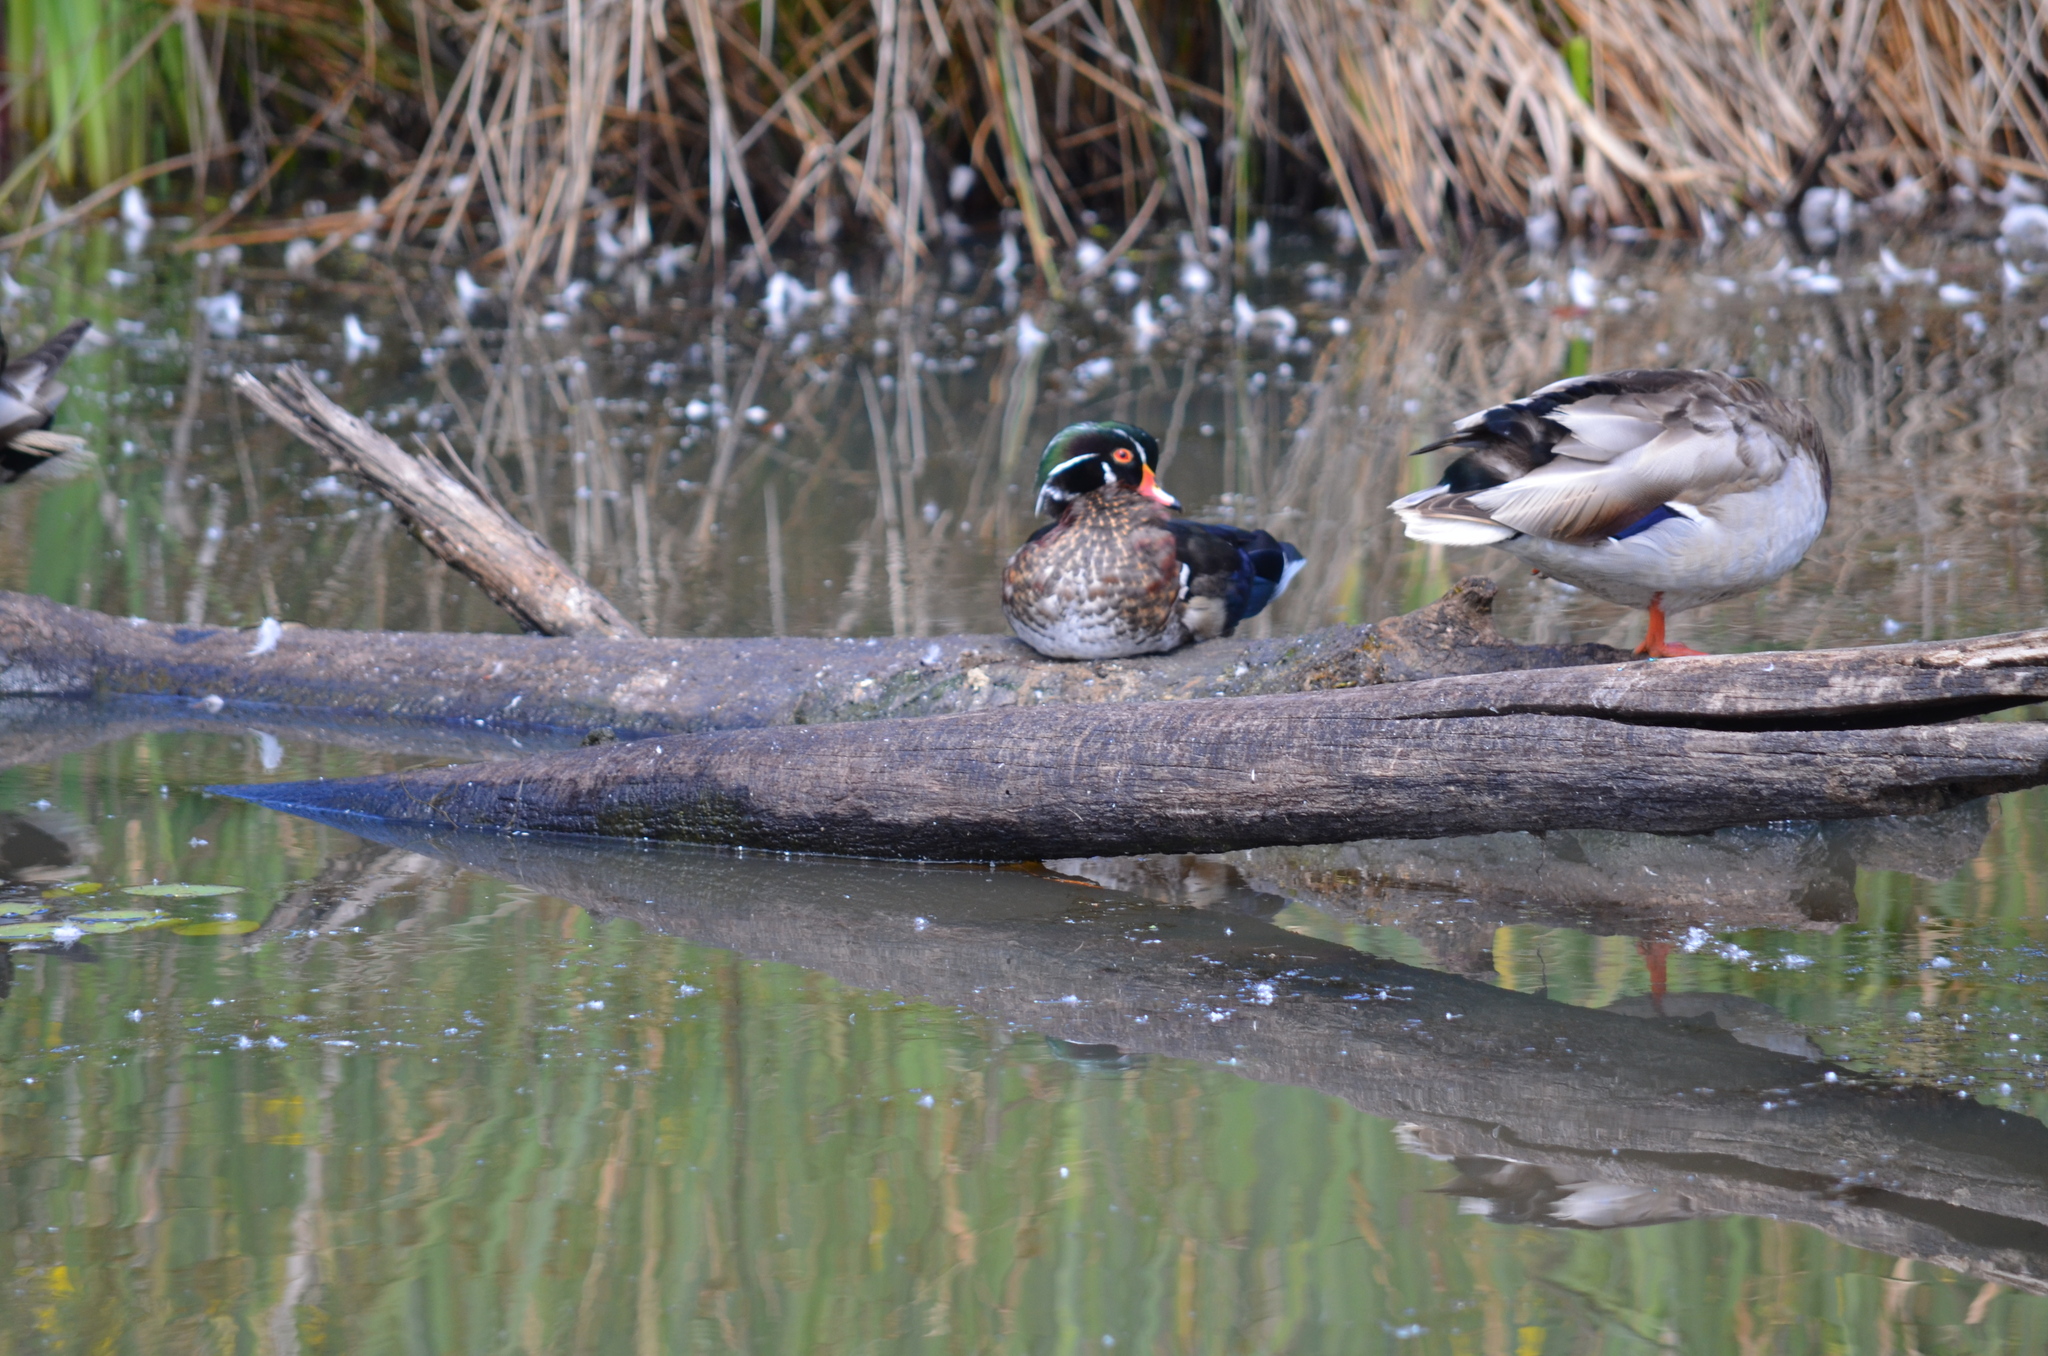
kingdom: Animalia
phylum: Chordata
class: Aves
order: Anseriformes
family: Anatidae
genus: Aix
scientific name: Aix sponsa
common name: Wood duck
